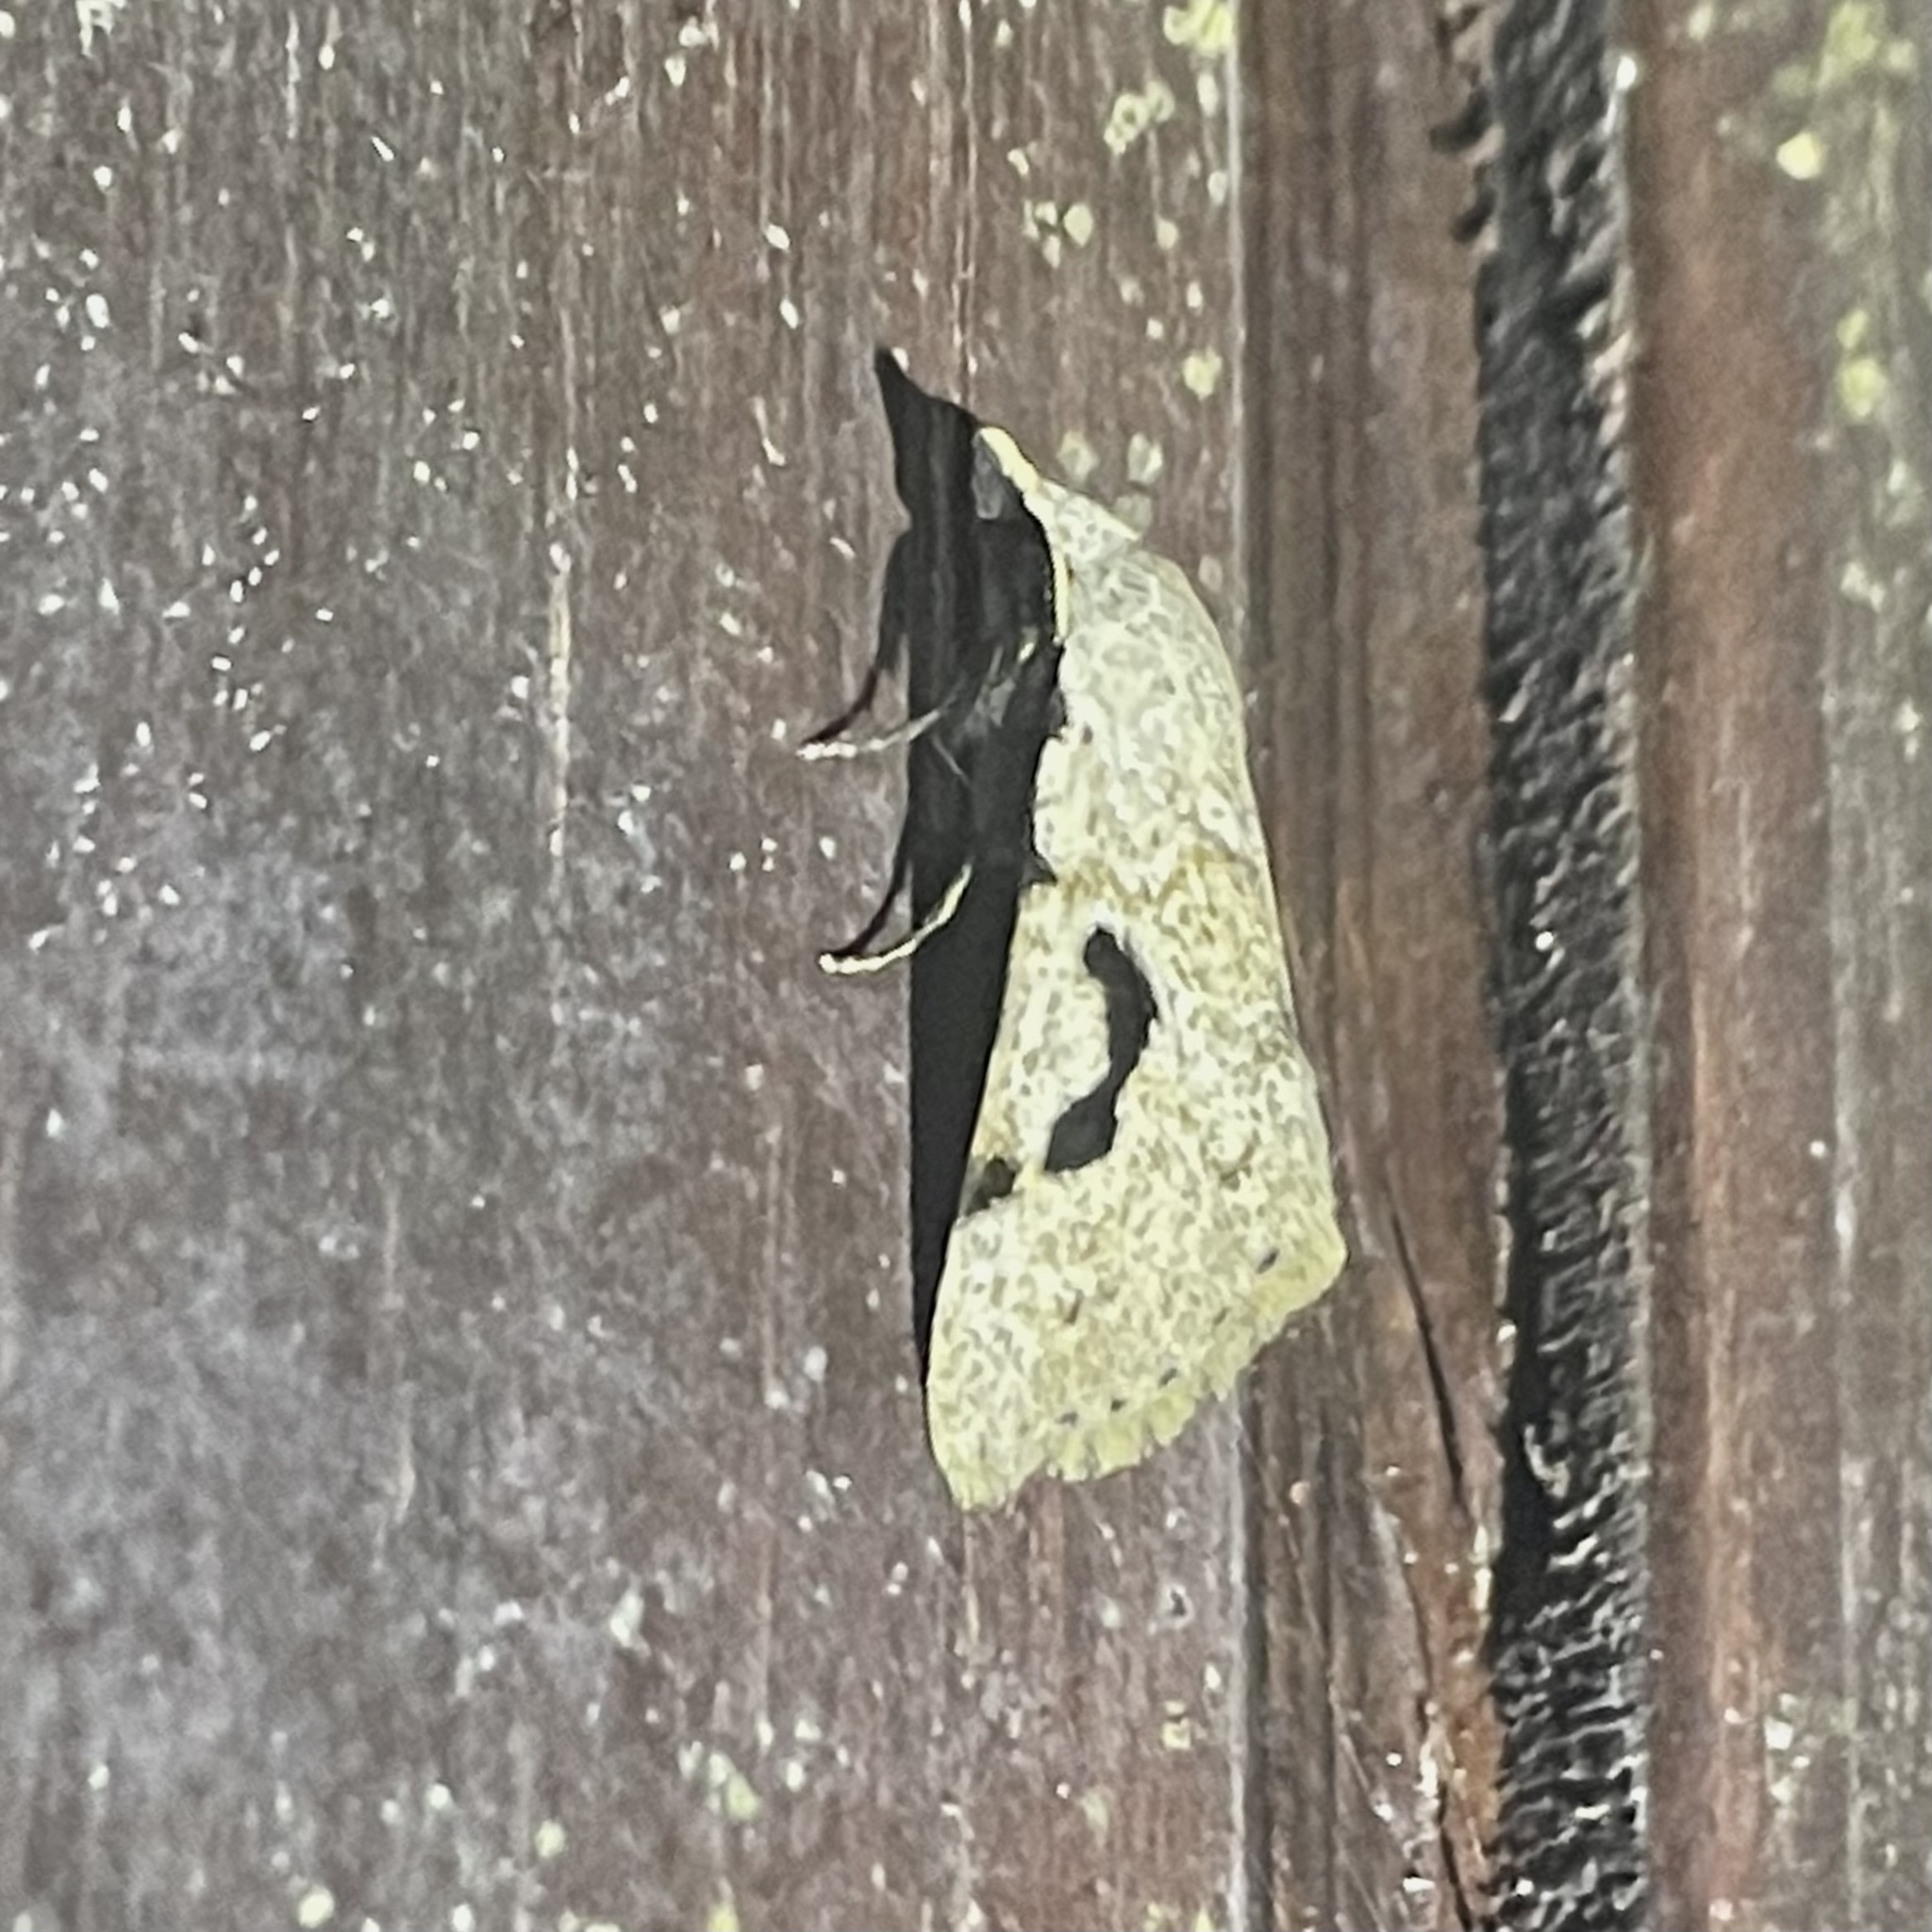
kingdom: Animalia
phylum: Arthropoda
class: Insecta
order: Lepidoptera
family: Erebidae
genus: Acanthermia
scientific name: Acanthermia concatenalis
